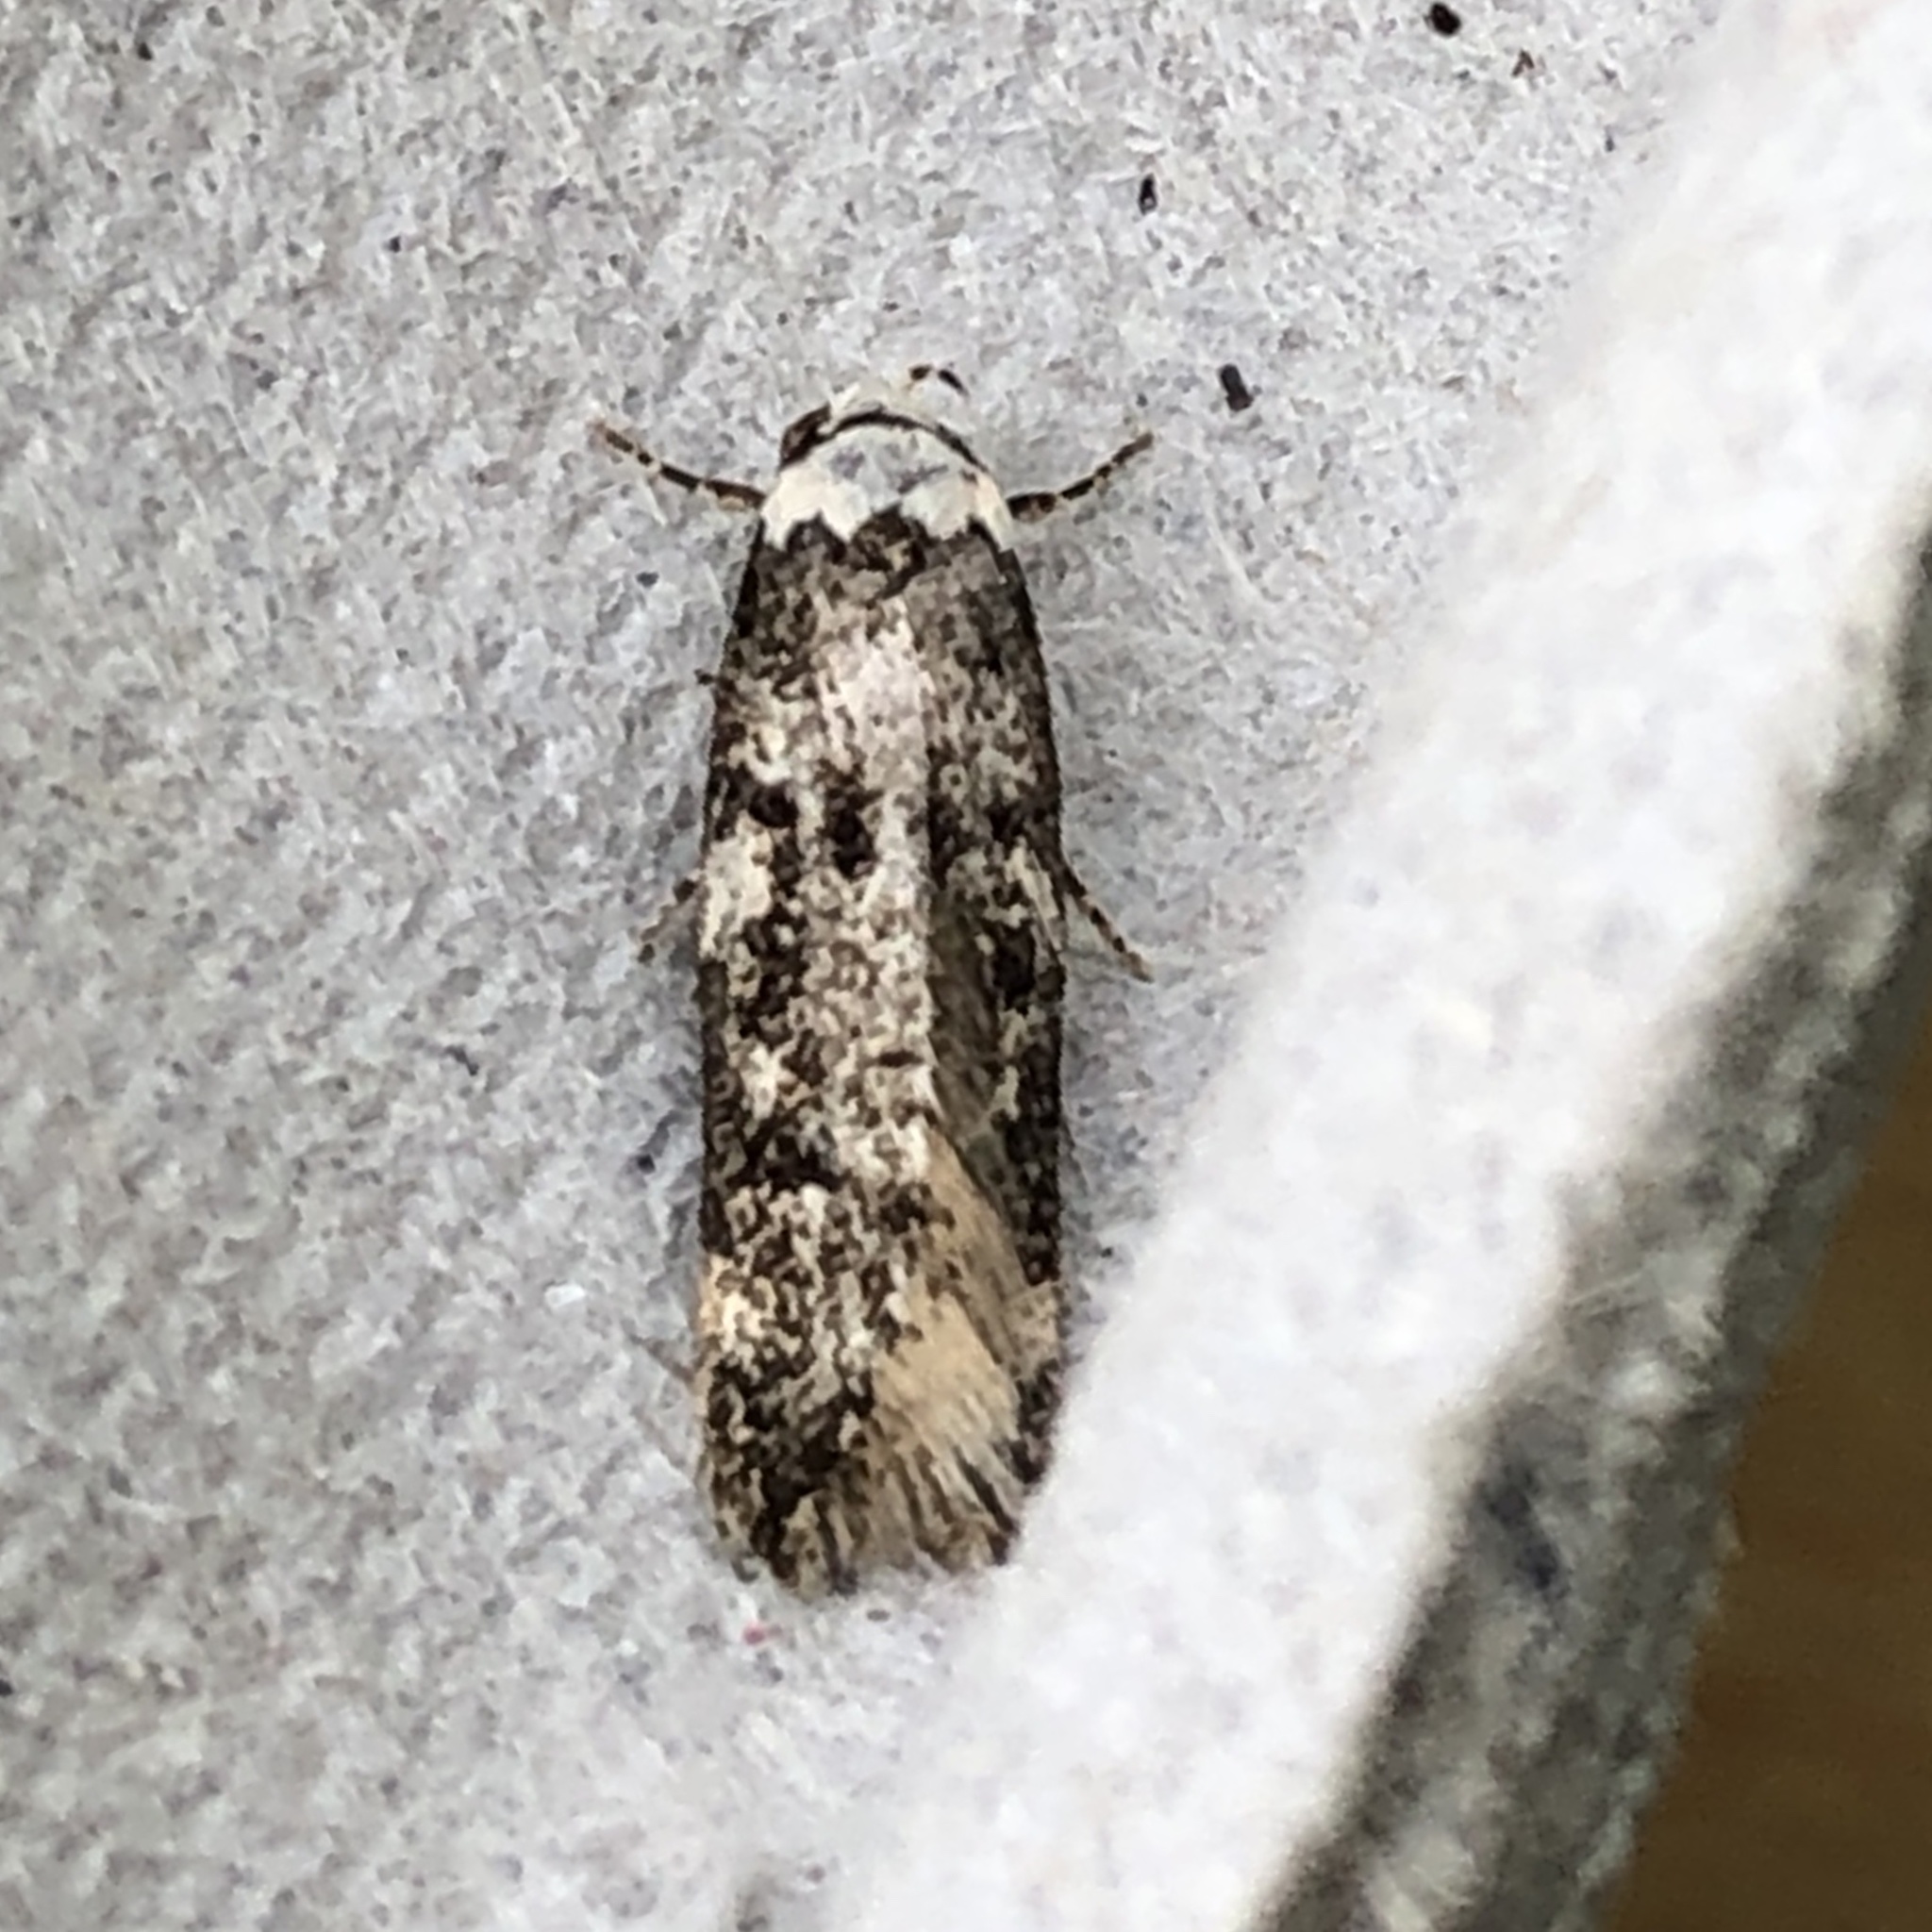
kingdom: Animalia
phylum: Arthropoda
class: Insecta
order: Lepidoptera
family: Oecophoridae
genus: Endrosis
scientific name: Endrosis sarcitrella
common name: White-shouldered house moth
